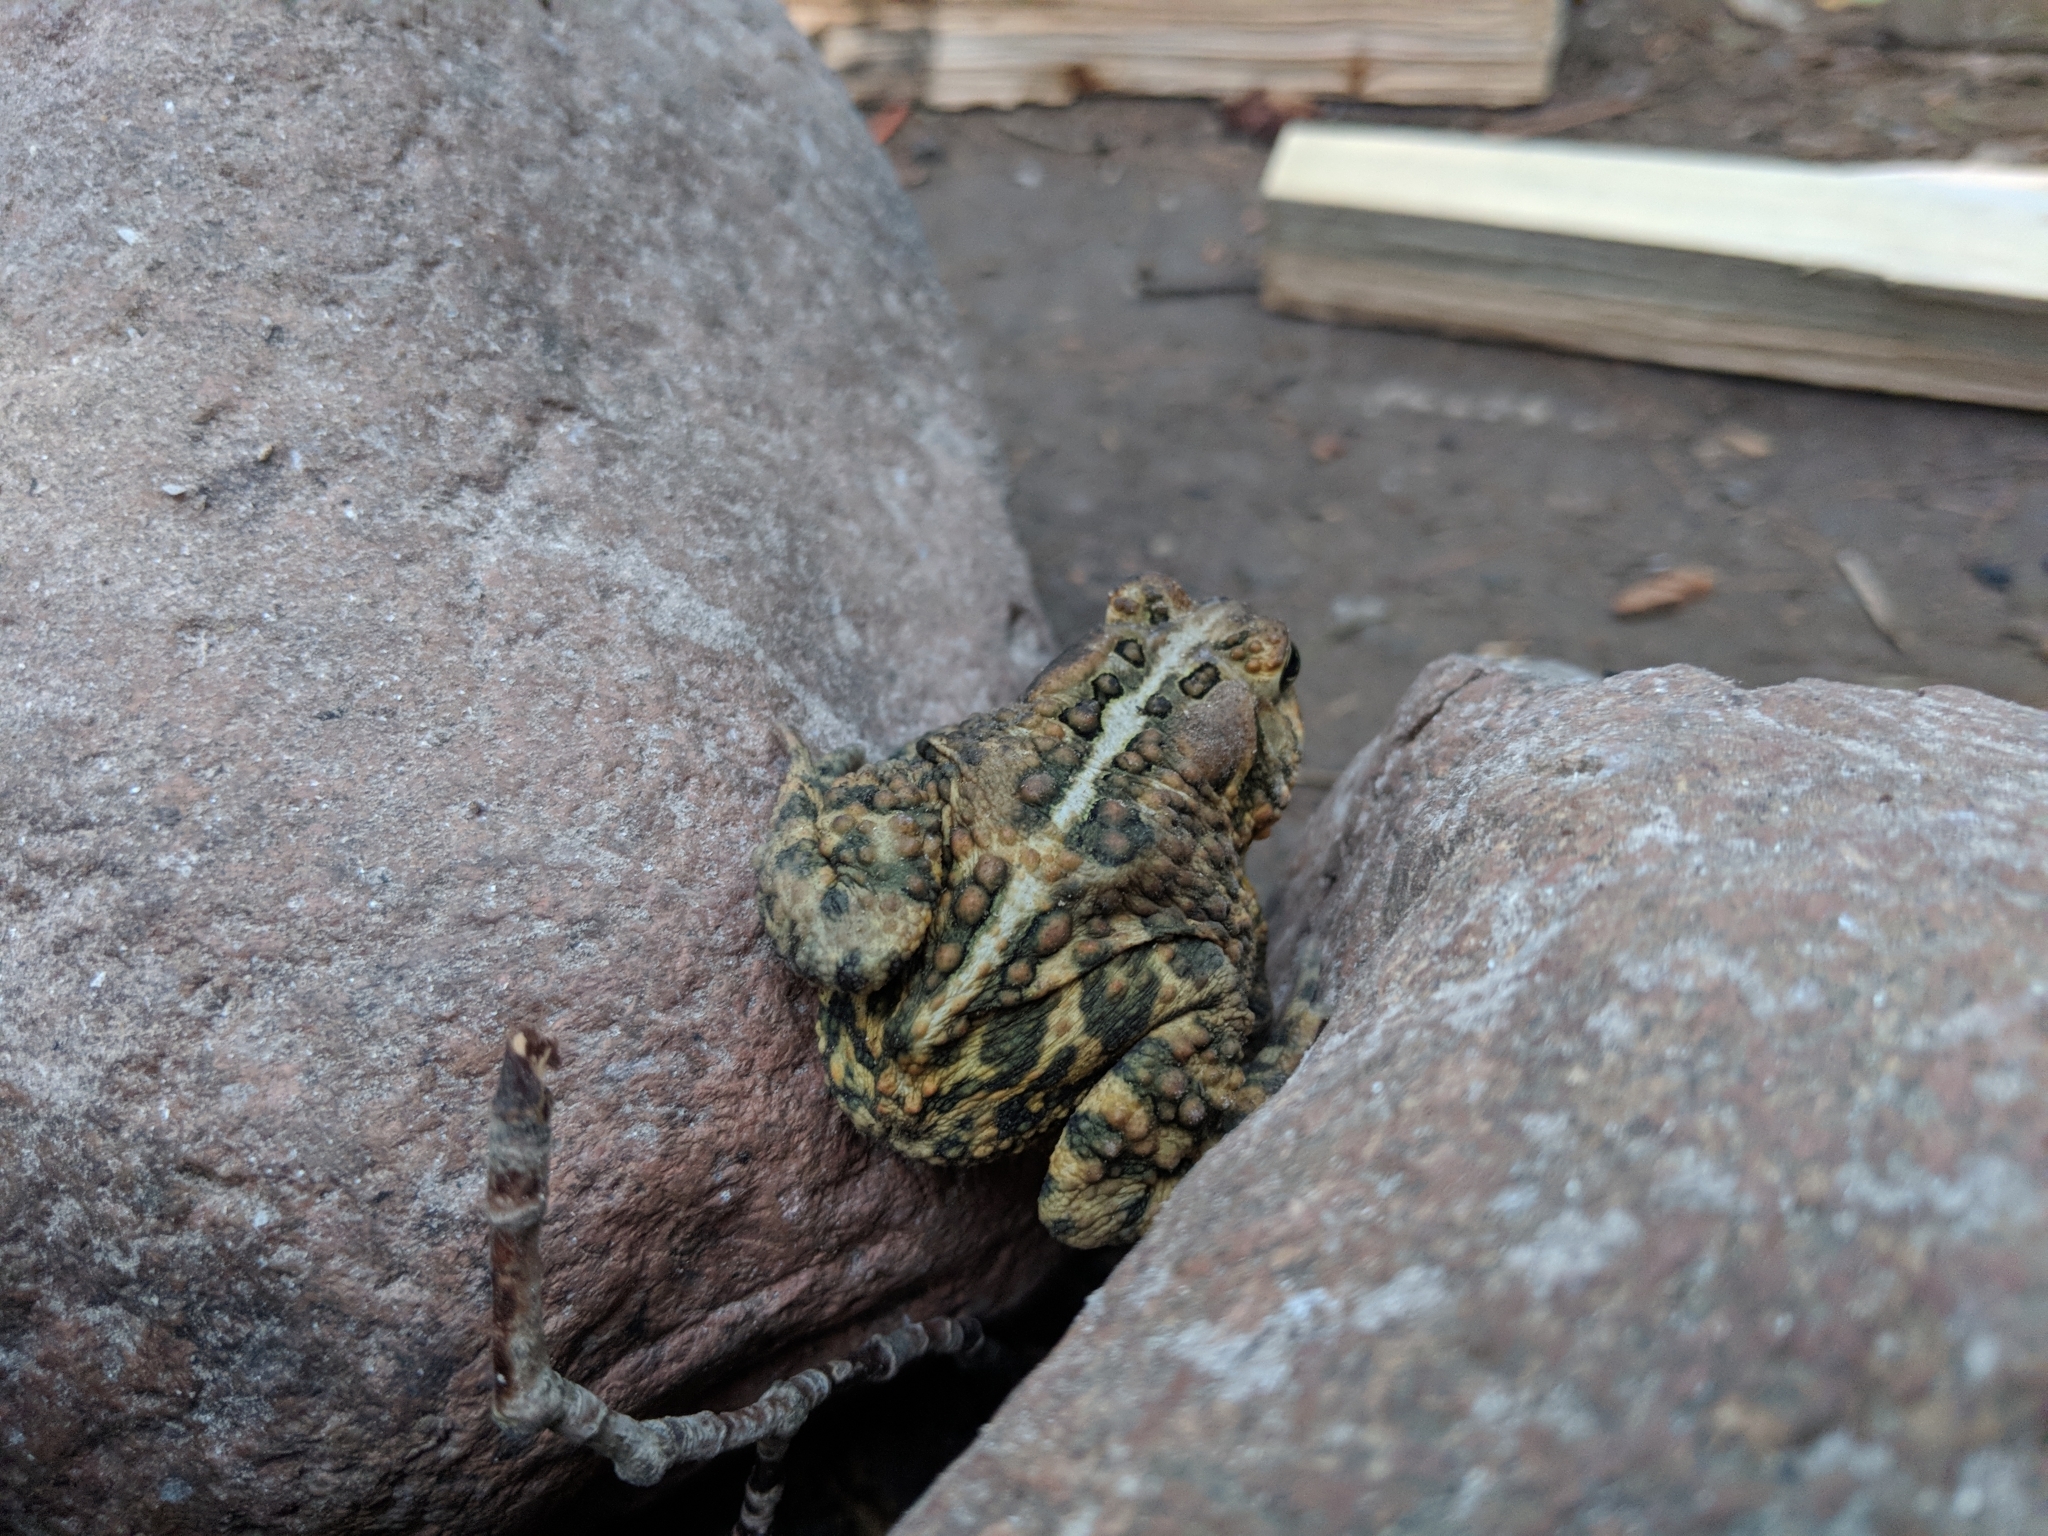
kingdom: Animalia
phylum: Chordata
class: Amphibia
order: Anura
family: Bufonidae
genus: Anaxyrus
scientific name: Anaxyrus americanus
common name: American toad
